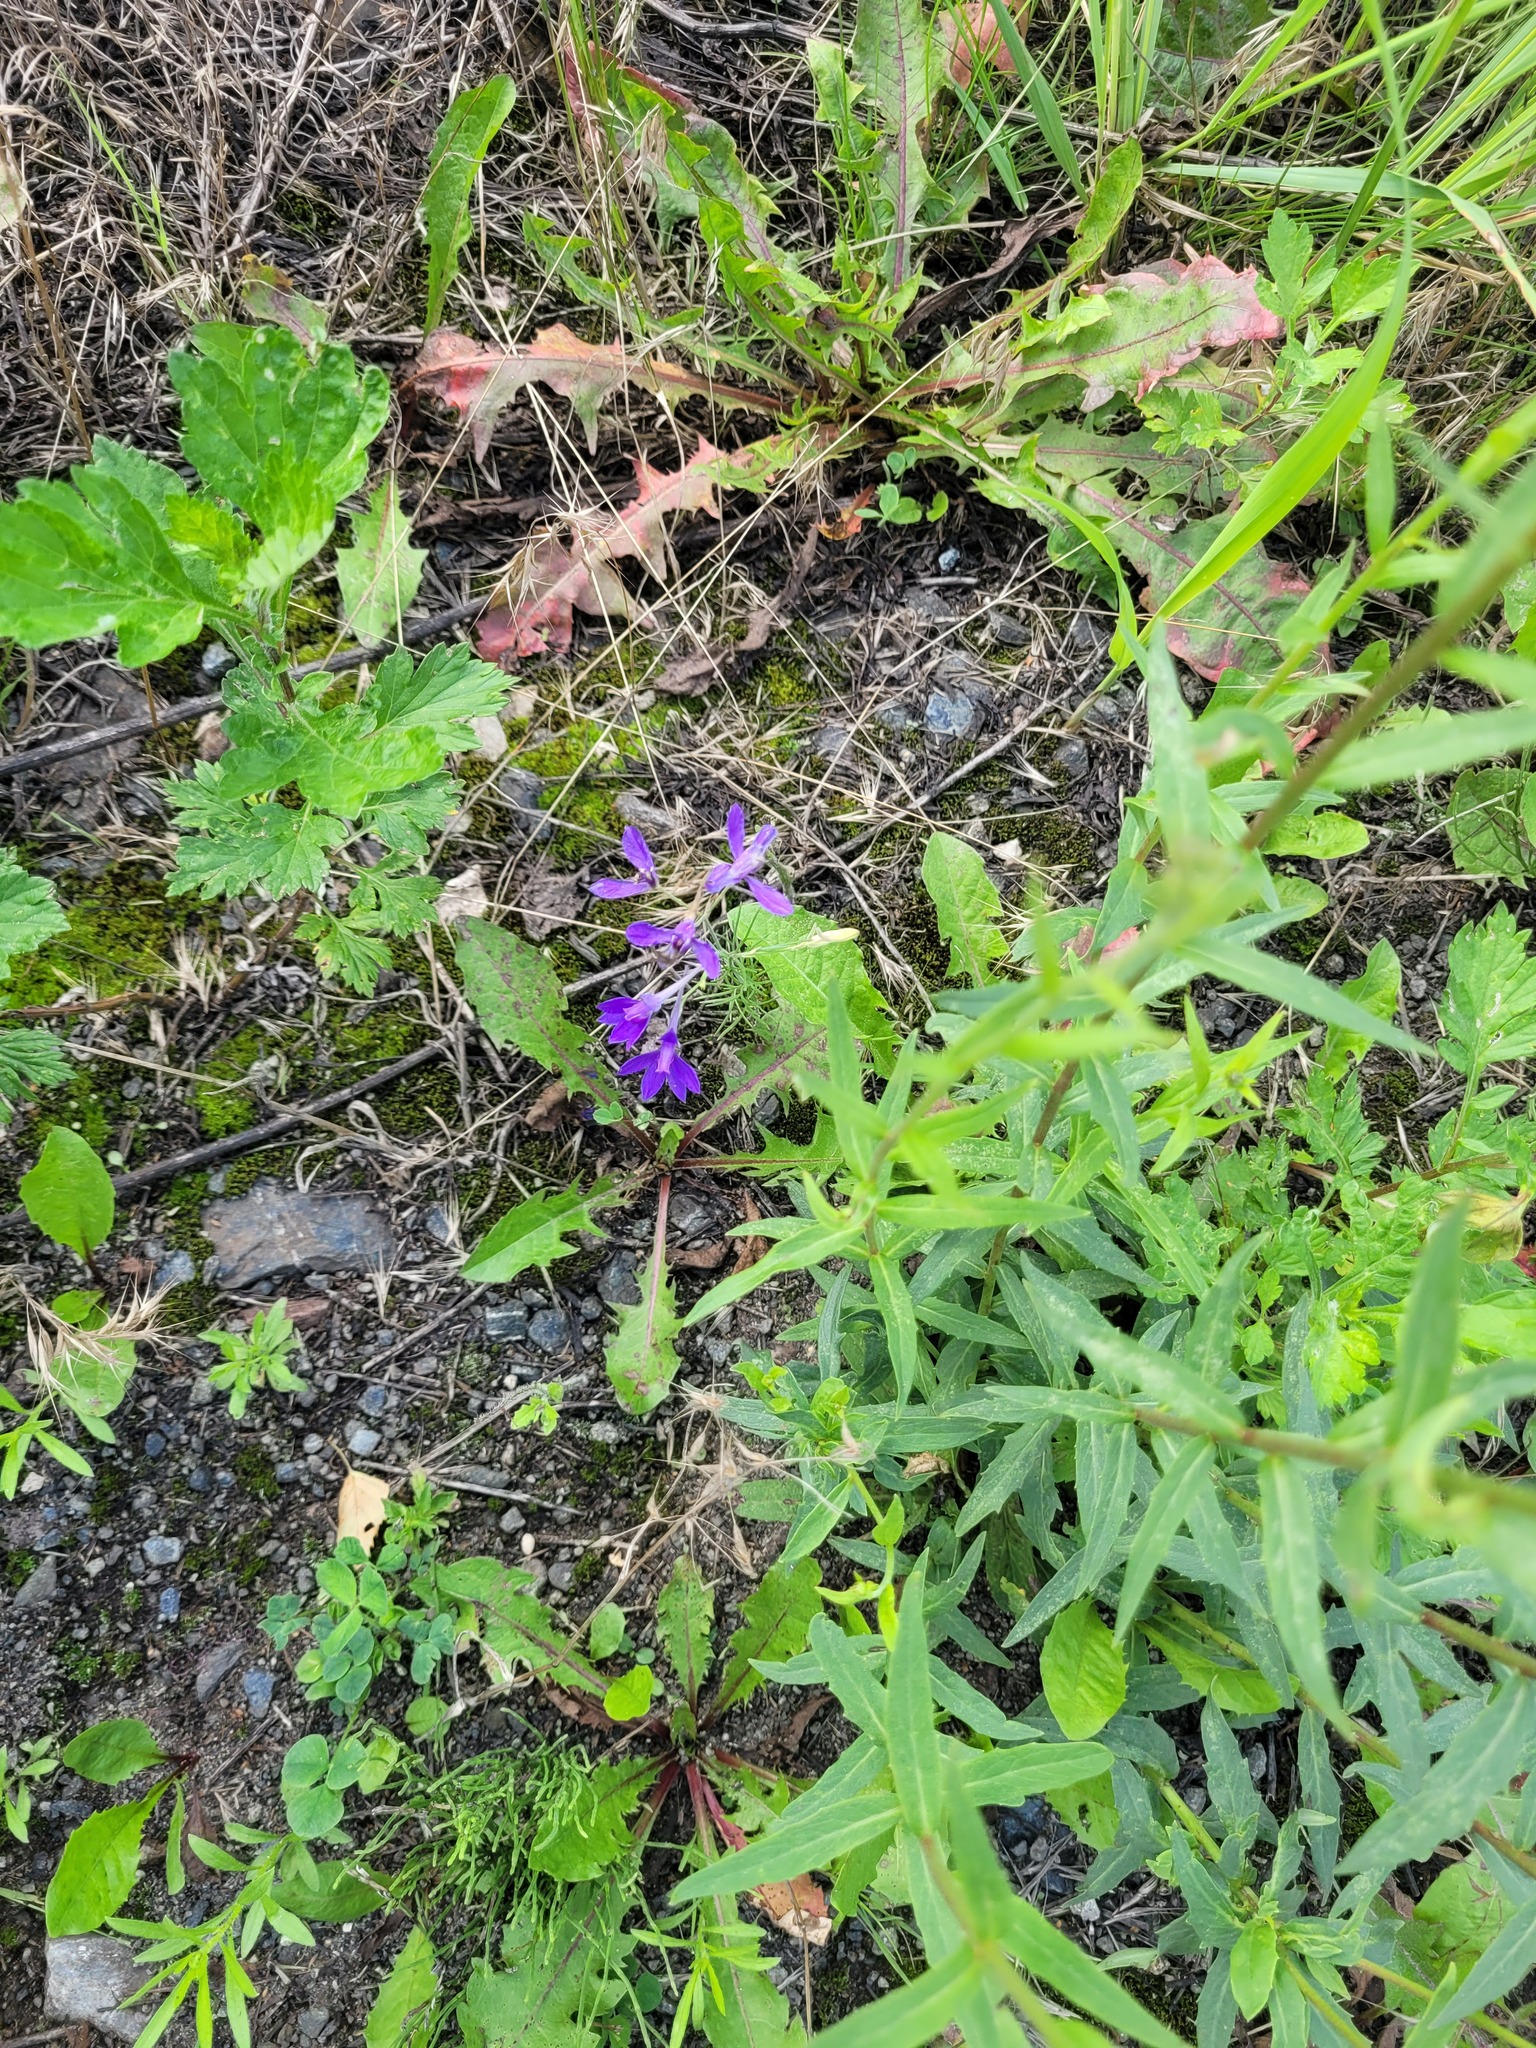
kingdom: Plantae
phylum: Tracheophyta
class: Magnoliopsida
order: Ranunculales
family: Ranunculaceae
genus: Delphinium
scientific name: Delphinium consolida
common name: Branching larkspur
